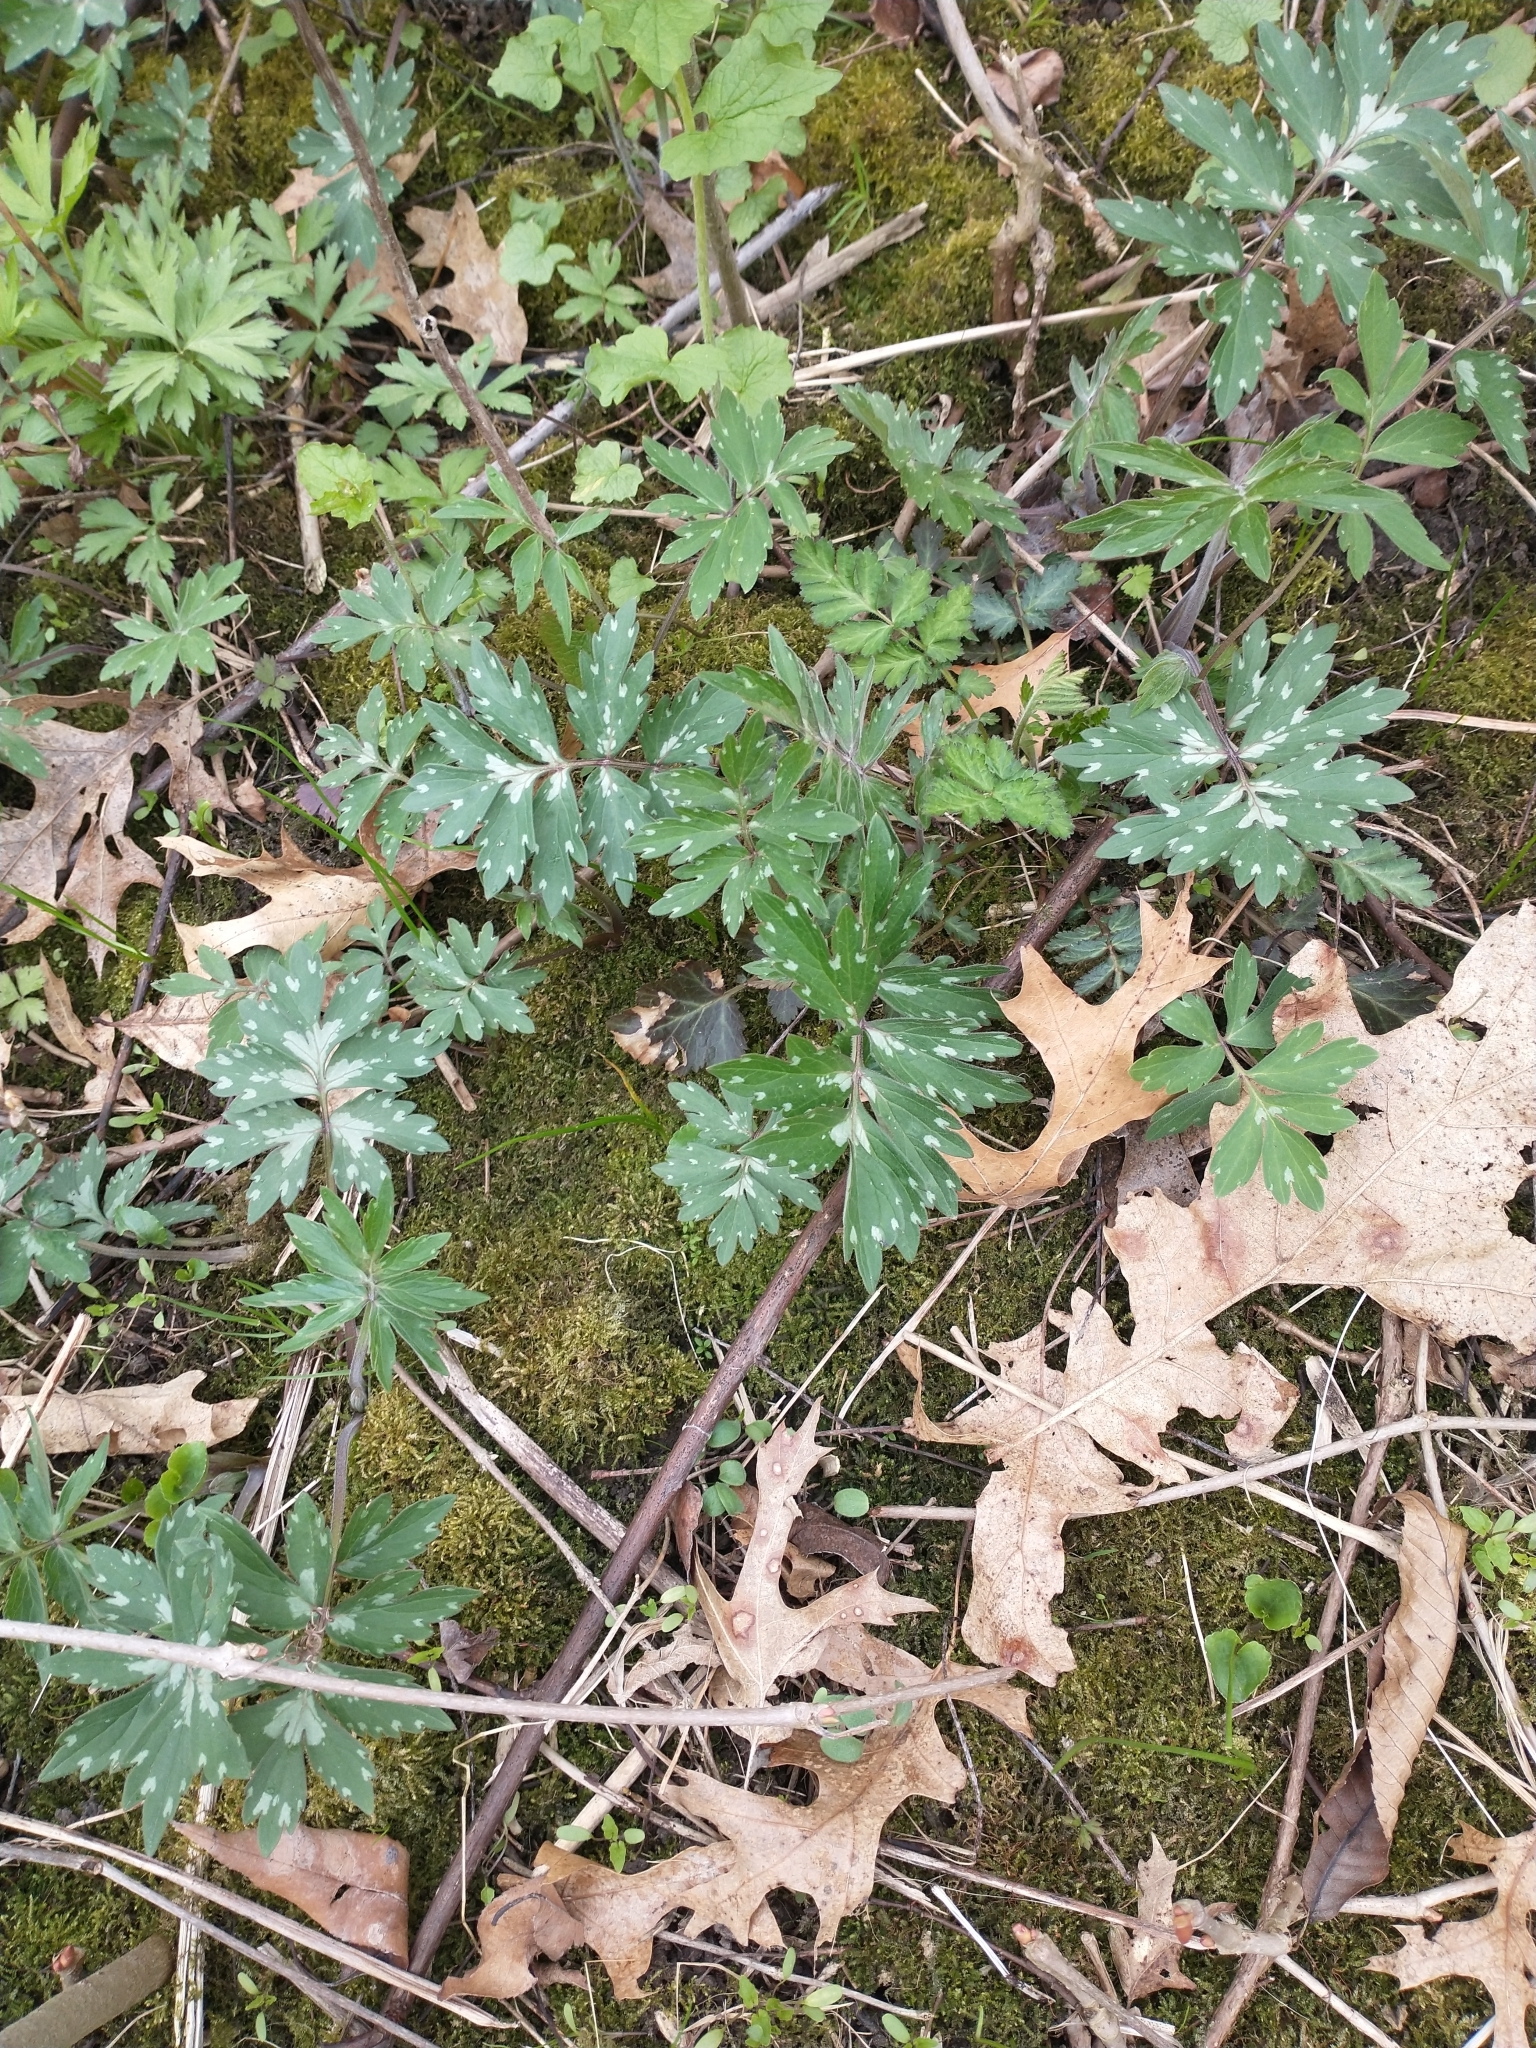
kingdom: Plantae
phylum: Tracheophyta
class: Magnoliopsida
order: Boraginales
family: Hydrophyllaceae
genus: Hydrophyllum
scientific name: Hydrophyllum virginianum
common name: Virginia waterleaf
